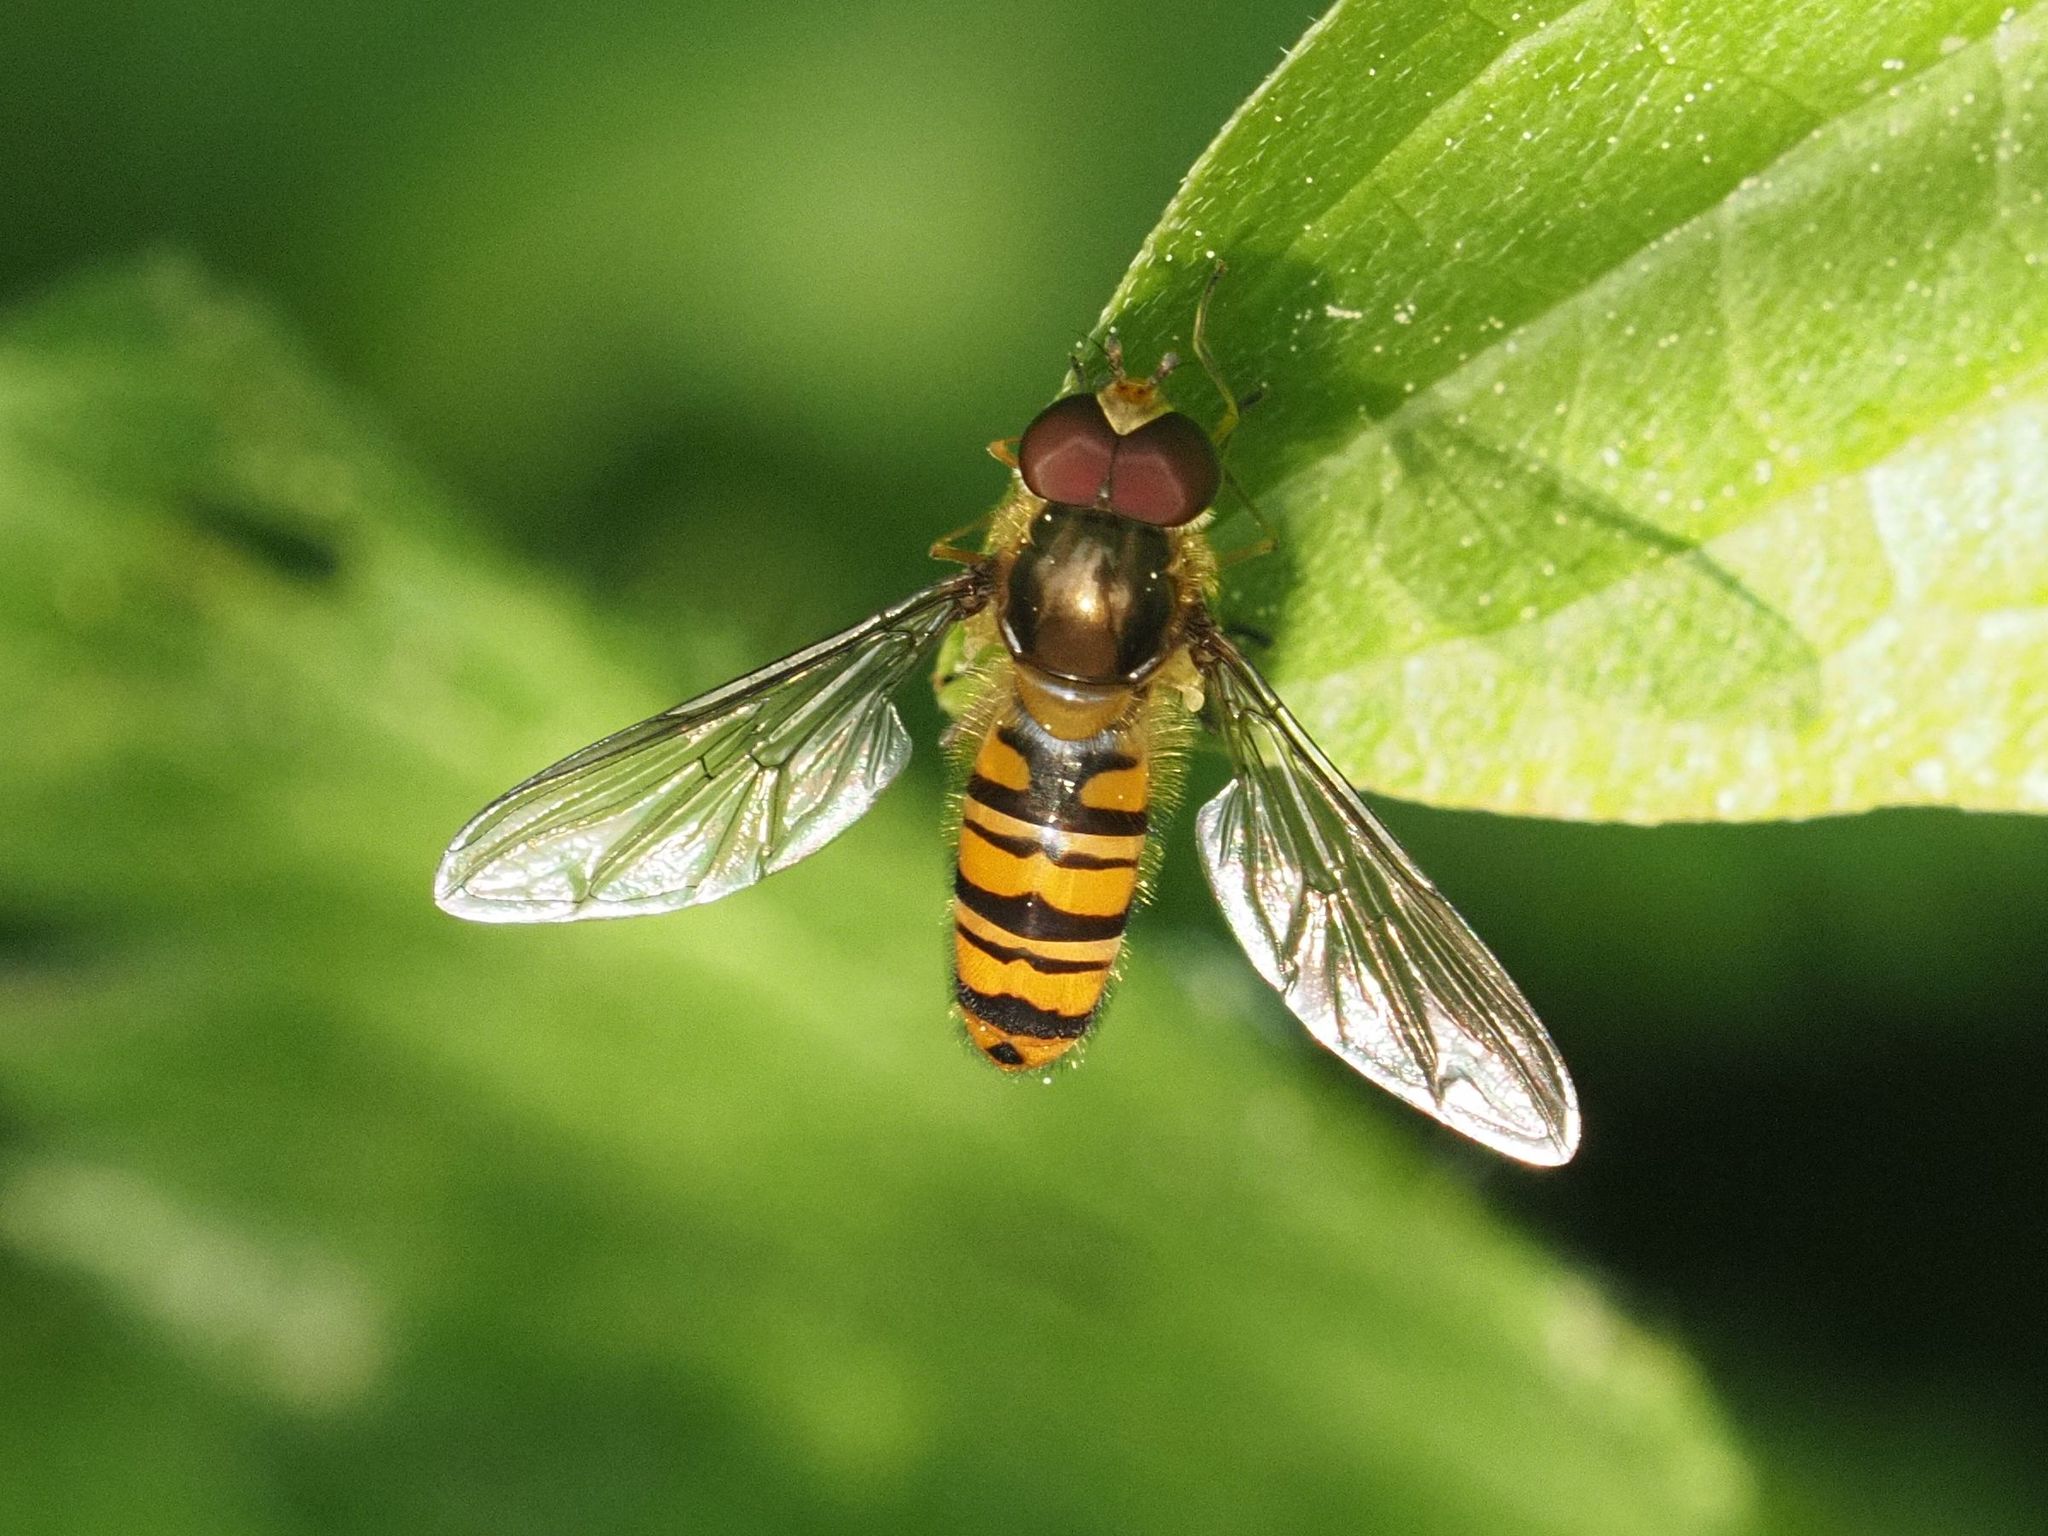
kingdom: Animalia
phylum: Arthropoda
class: Insecta
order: Diptera
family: Syrphidae
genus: Episyrphus
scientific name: Episyrphus balteatus
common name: Marmalade hoverfly
